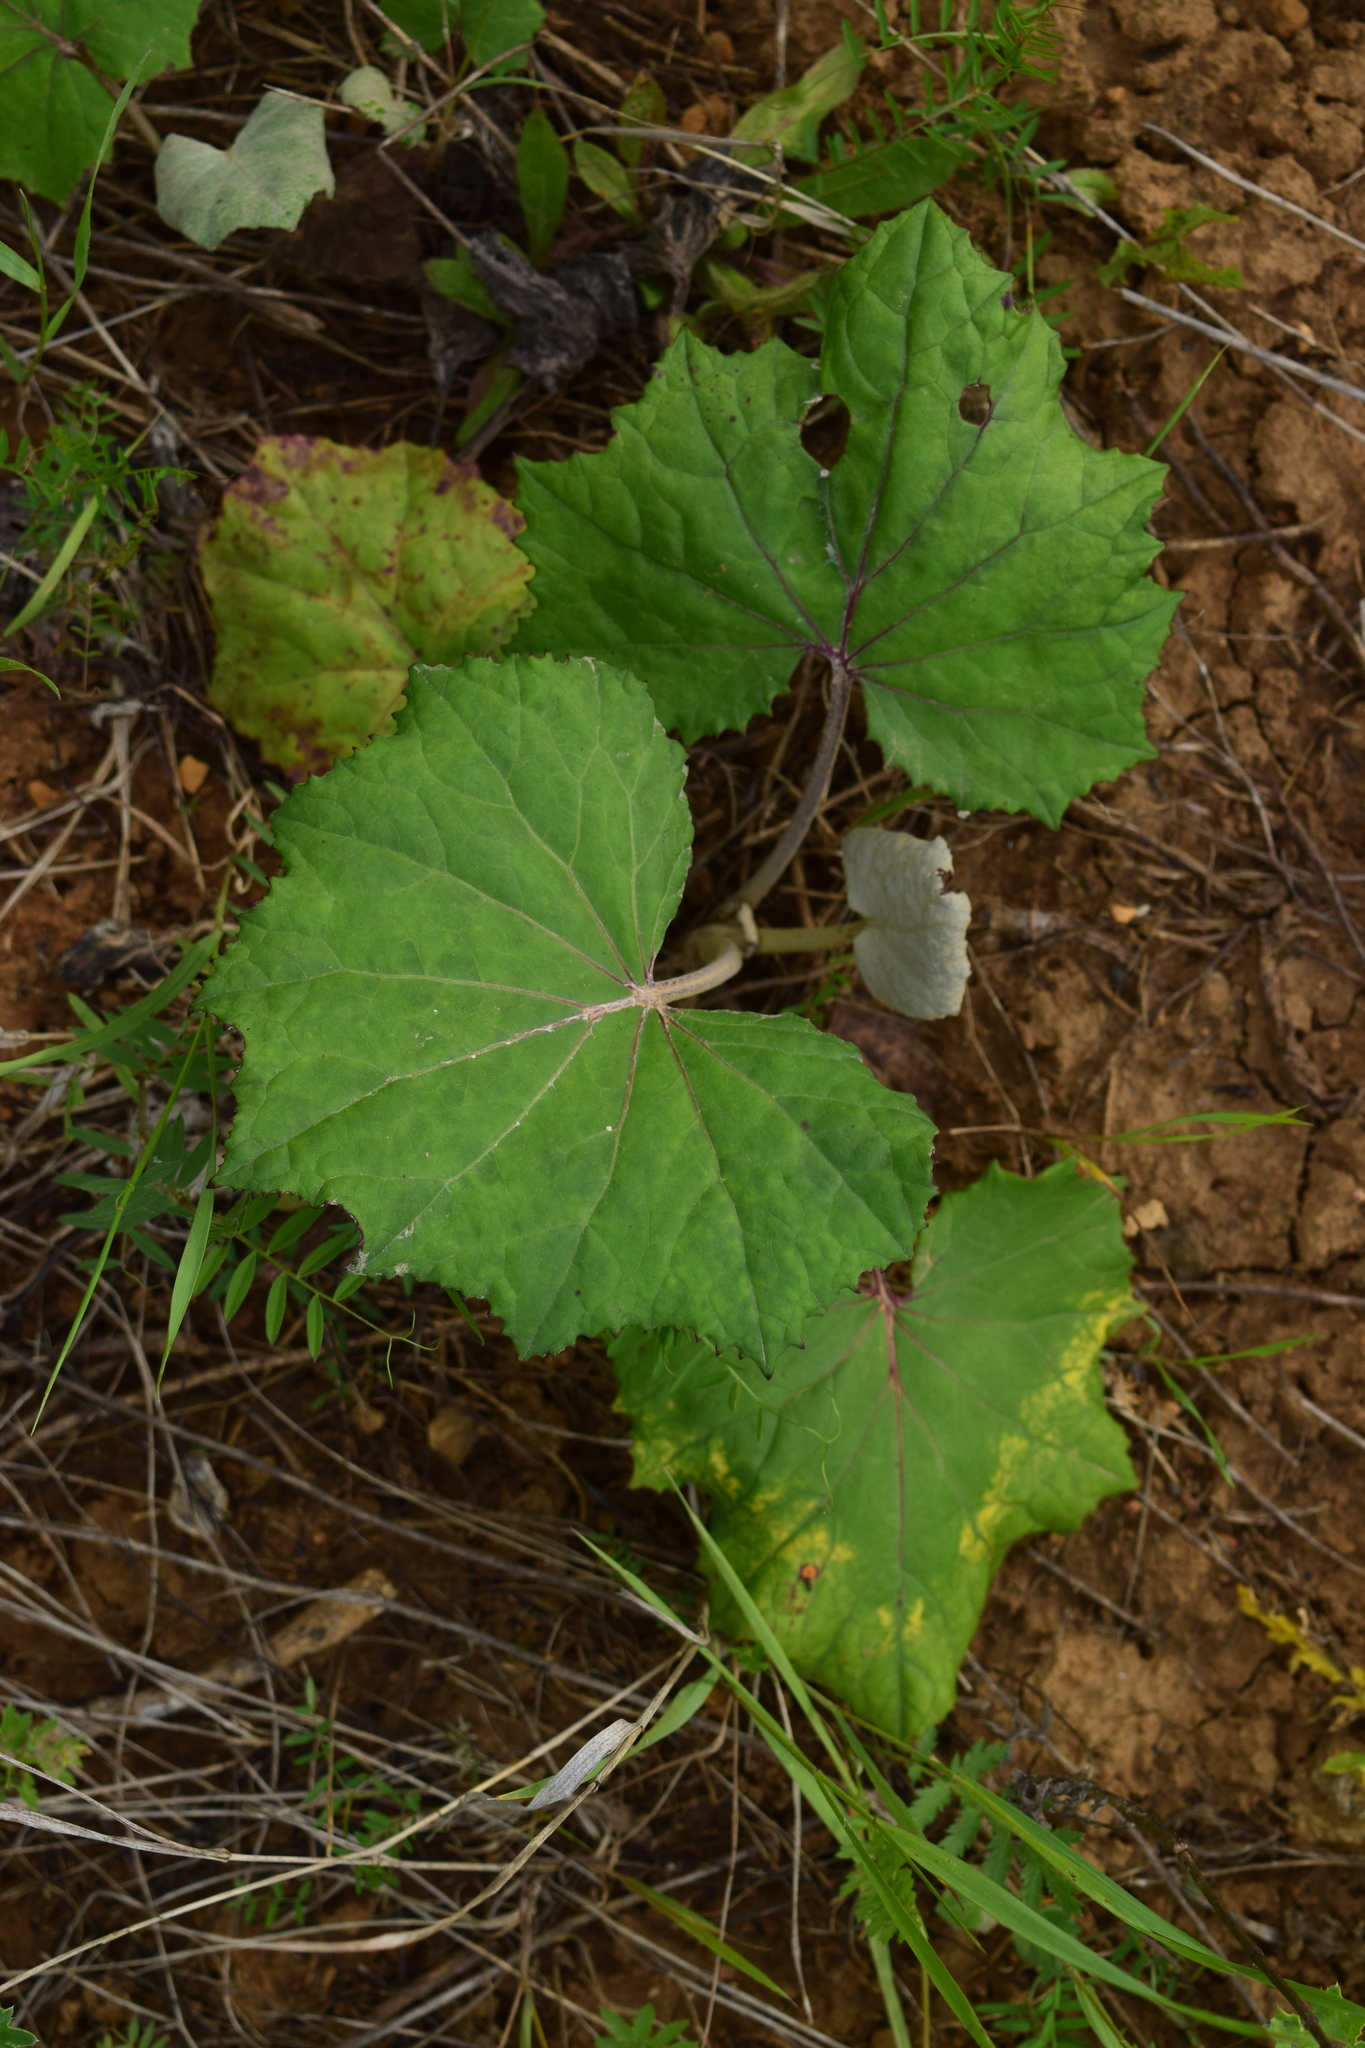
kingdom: Plantae
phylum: Tracheophyta
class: Magnoliopsida
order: Asterales
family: Asteraceae
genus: Tussilago
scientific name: Tussilago farfara
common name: Coltsfoot
